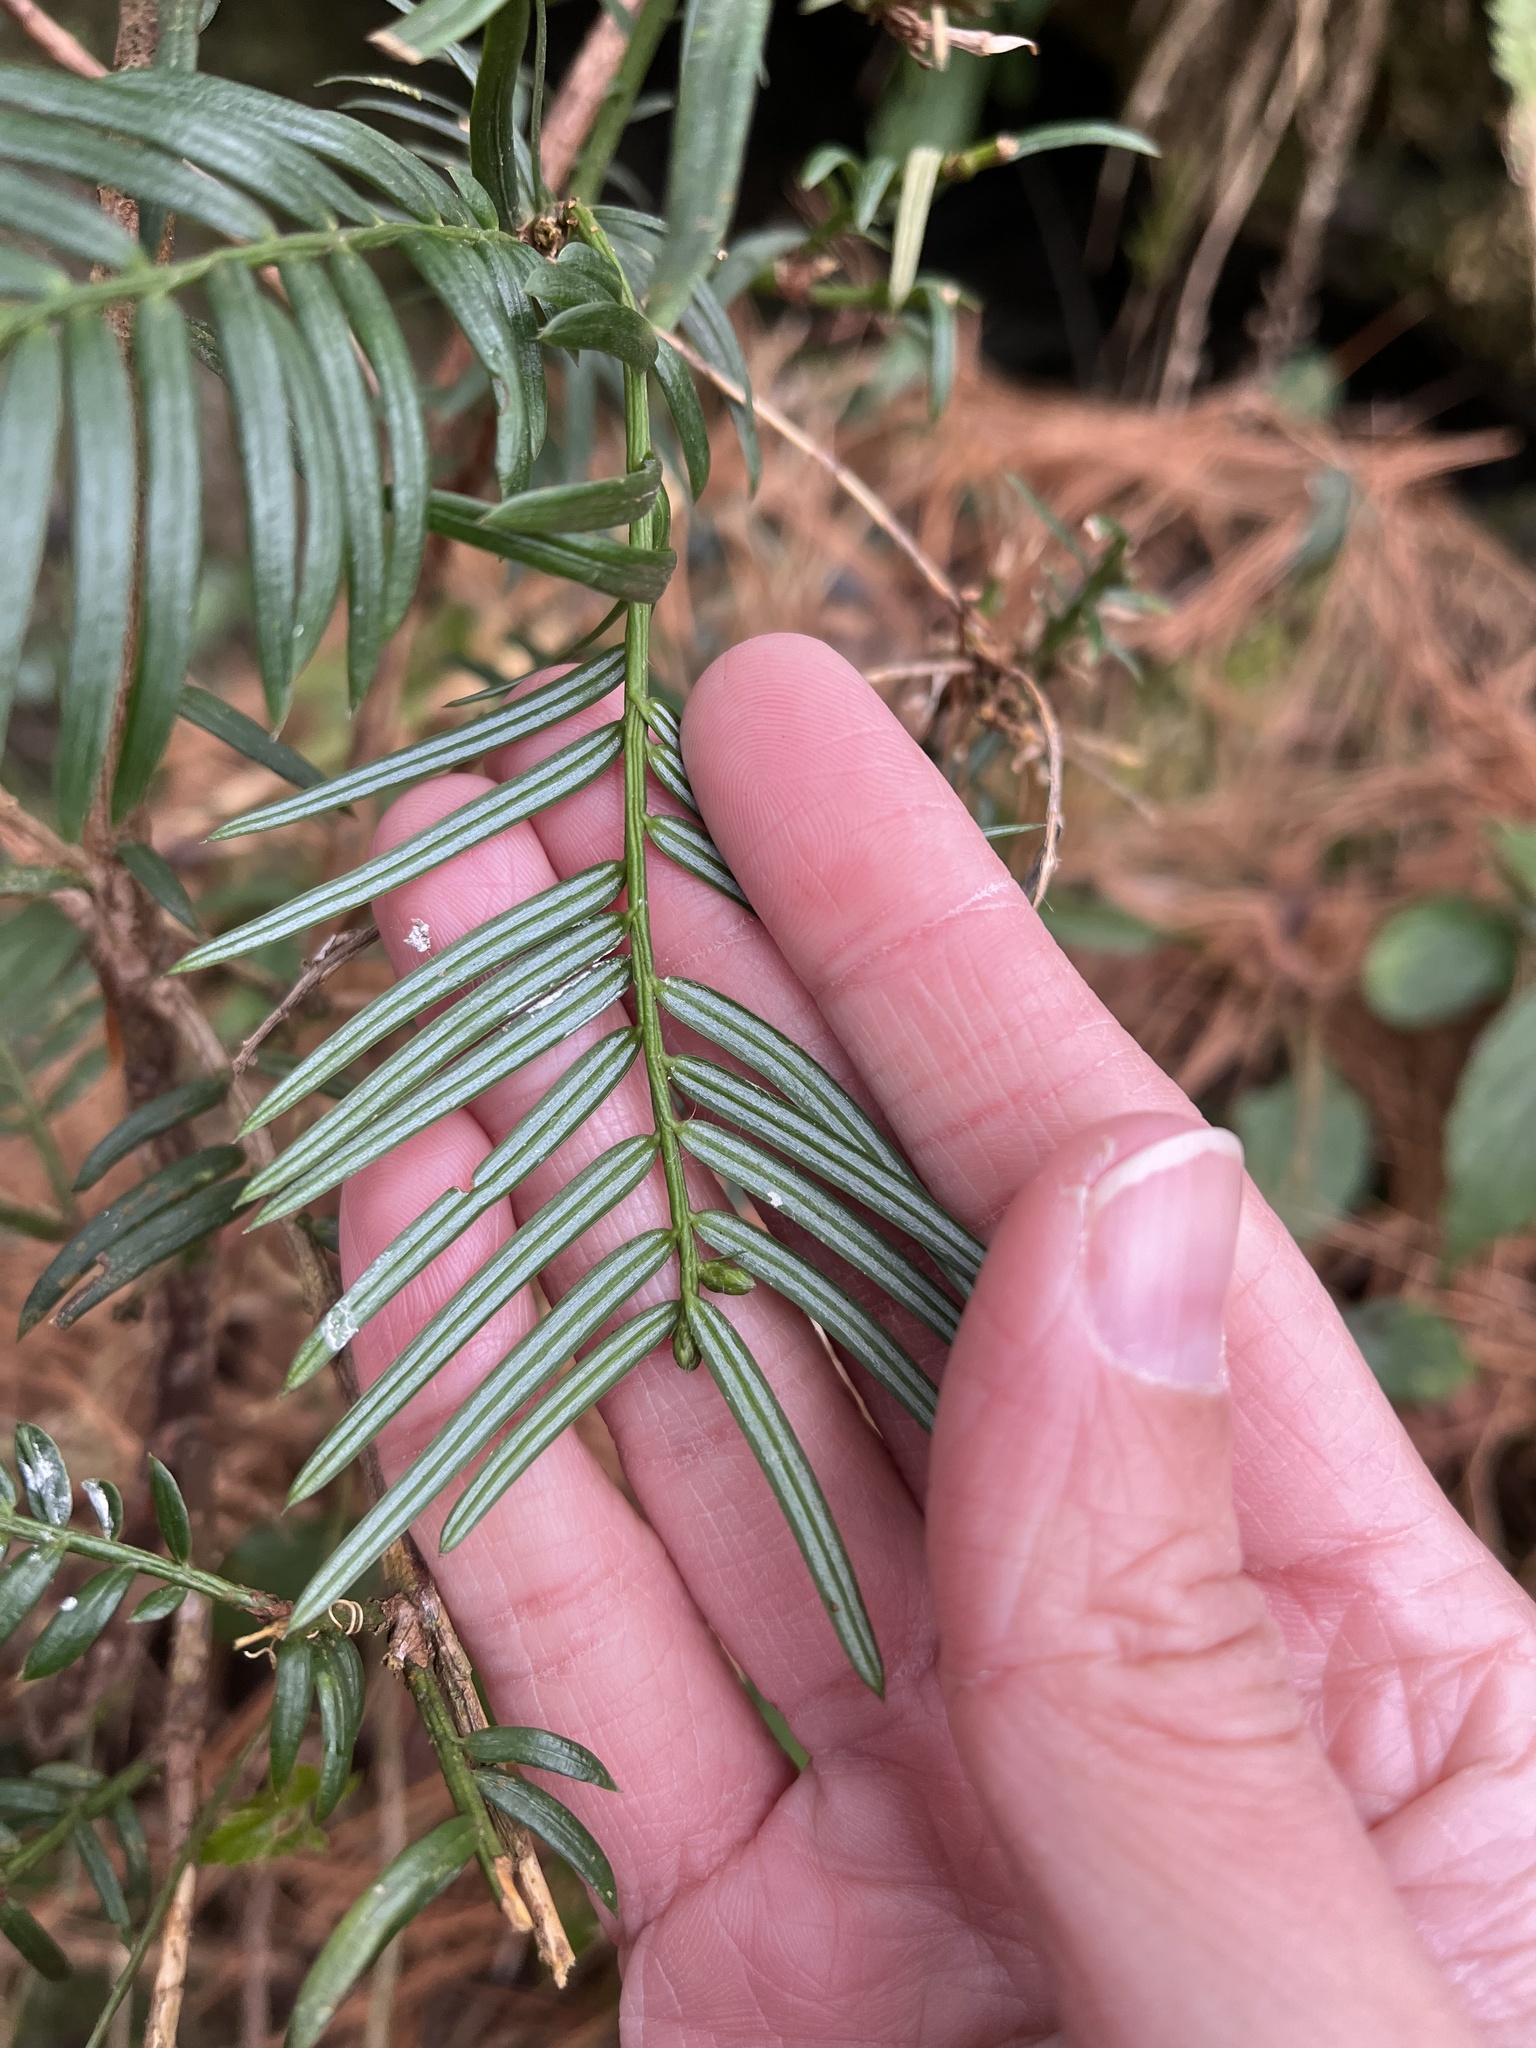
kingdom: Plantae
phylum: Tracheophyta
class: Pinopsida
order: Pinales
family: Cephalotaxaceae
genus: Cephalotaxus
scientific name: Cephalotaxus harringtonii
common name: Harrington's plum yew
